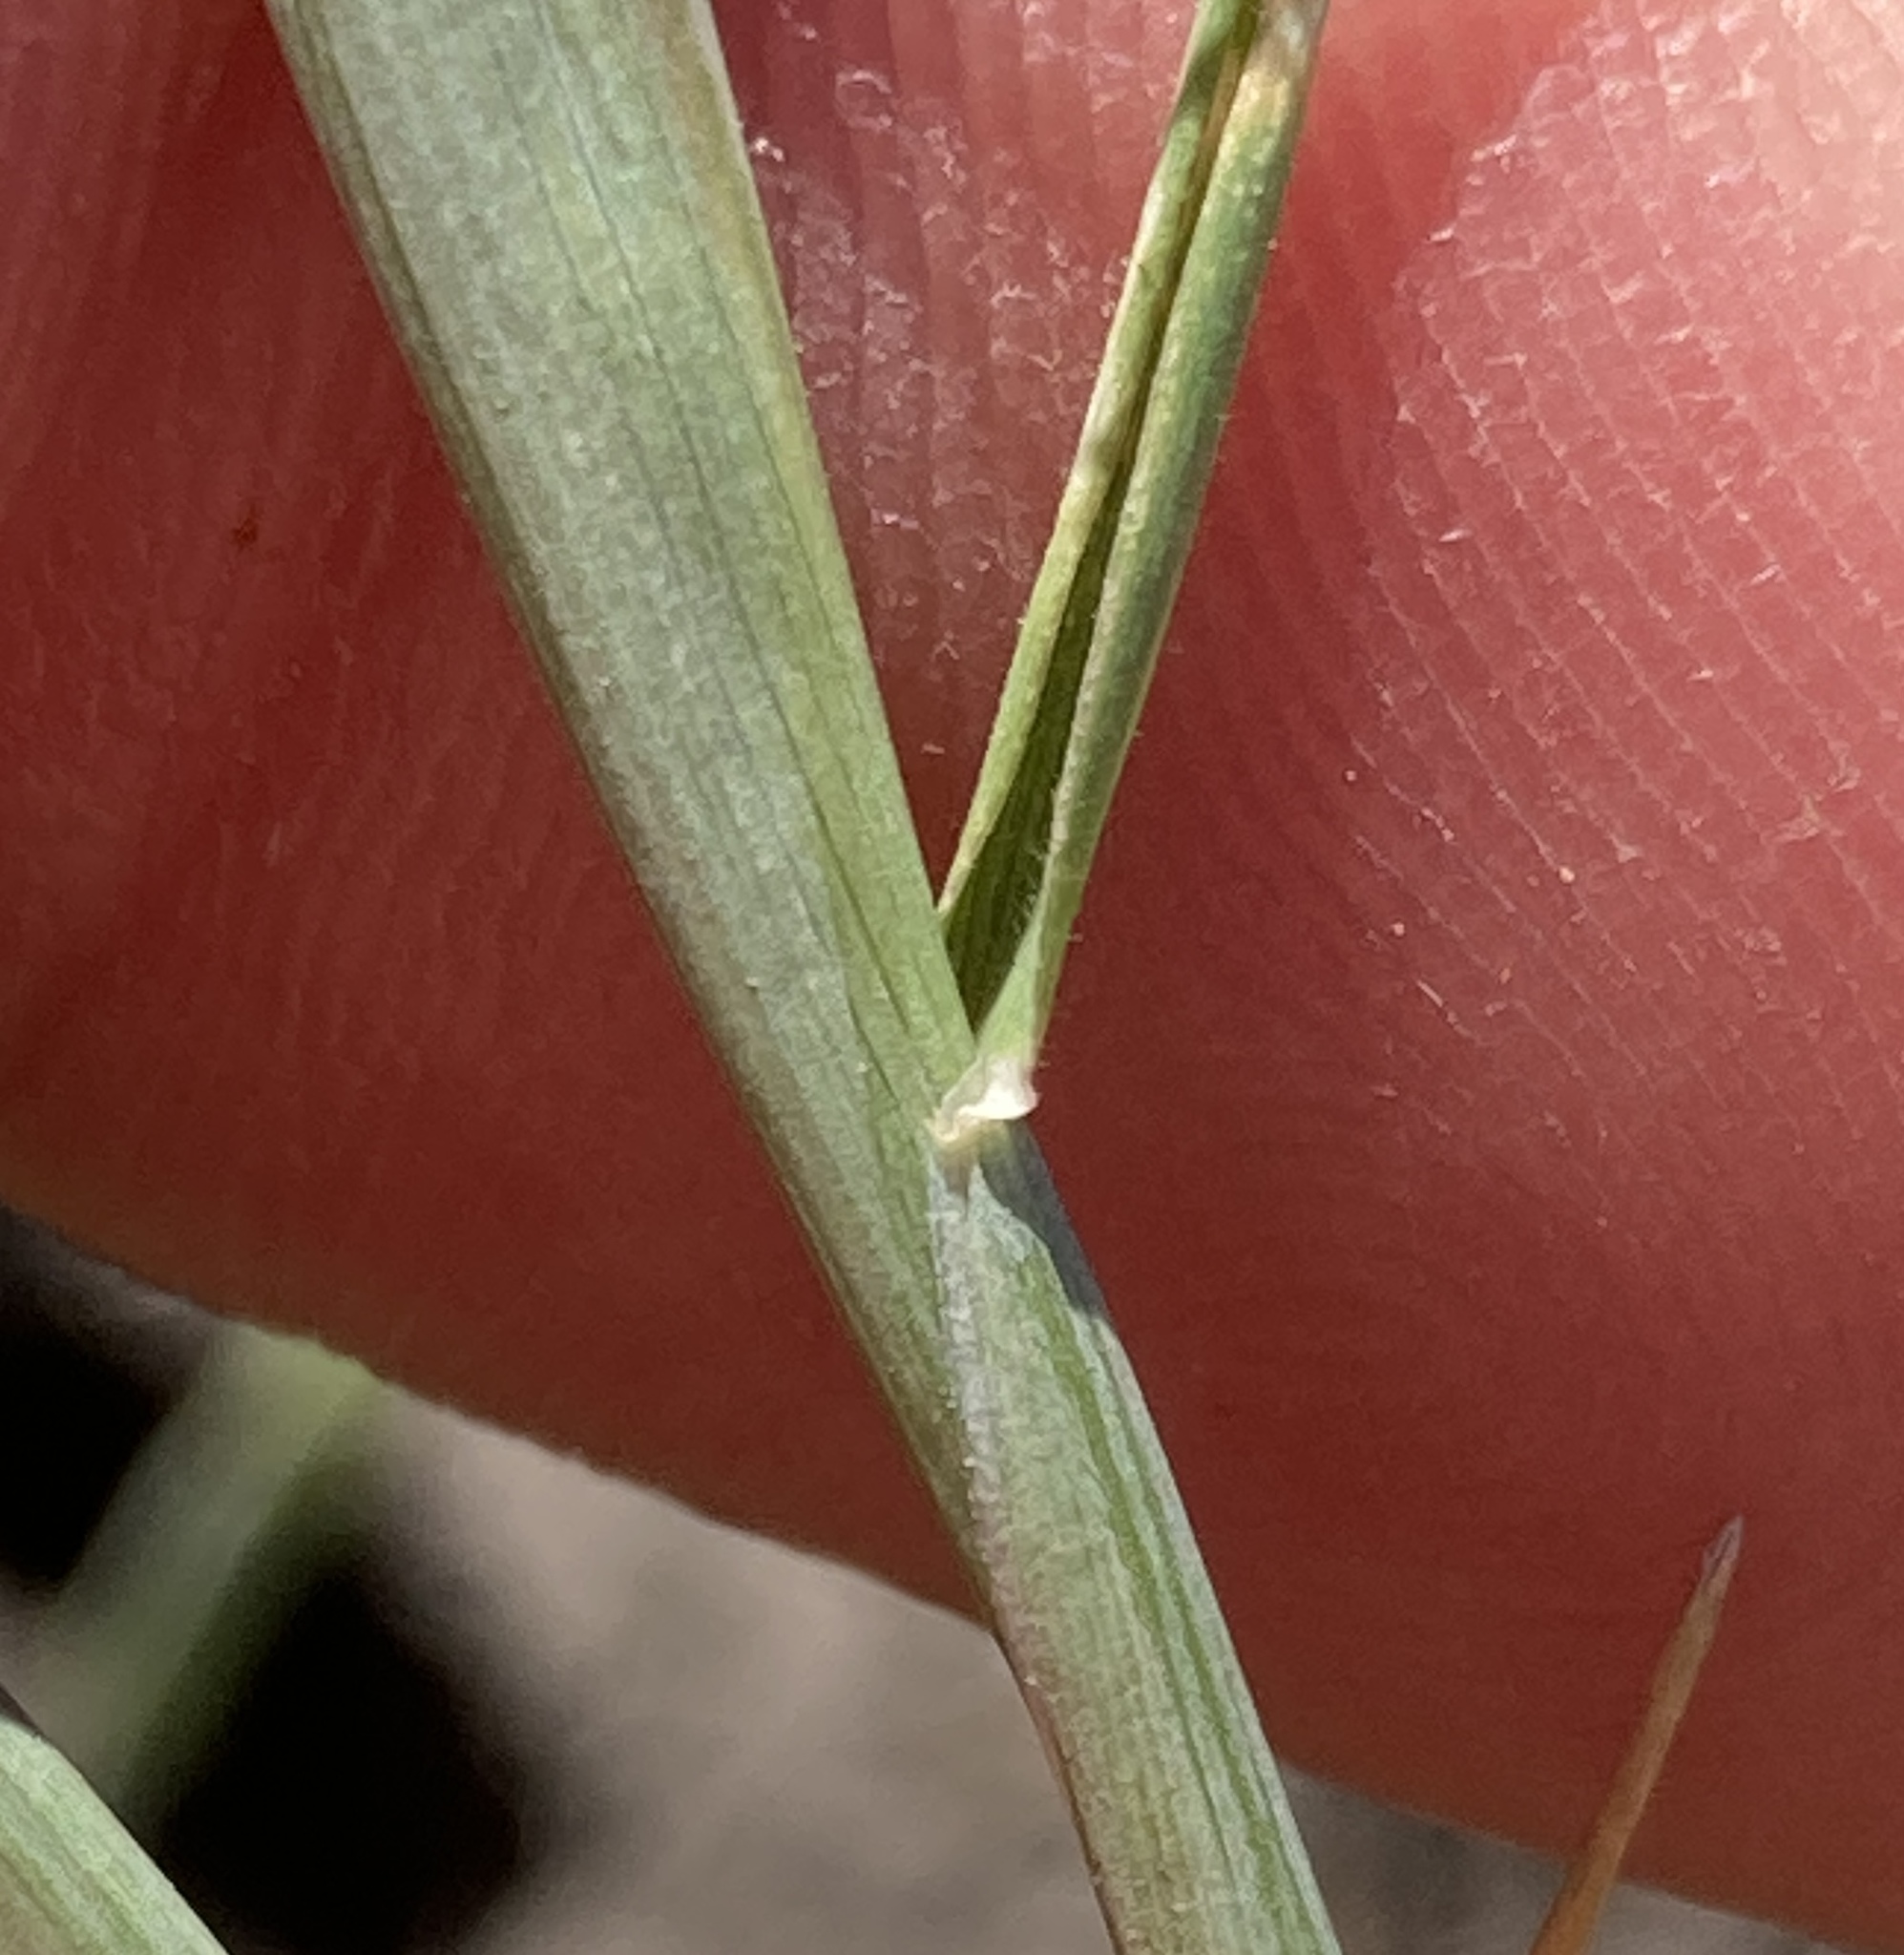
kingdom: Plantae
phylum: Tracheophyta
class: Liliopsida
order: Poales
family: Poaceae
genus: Hordeum
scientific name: Hordeum marinum
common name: Sea barley
